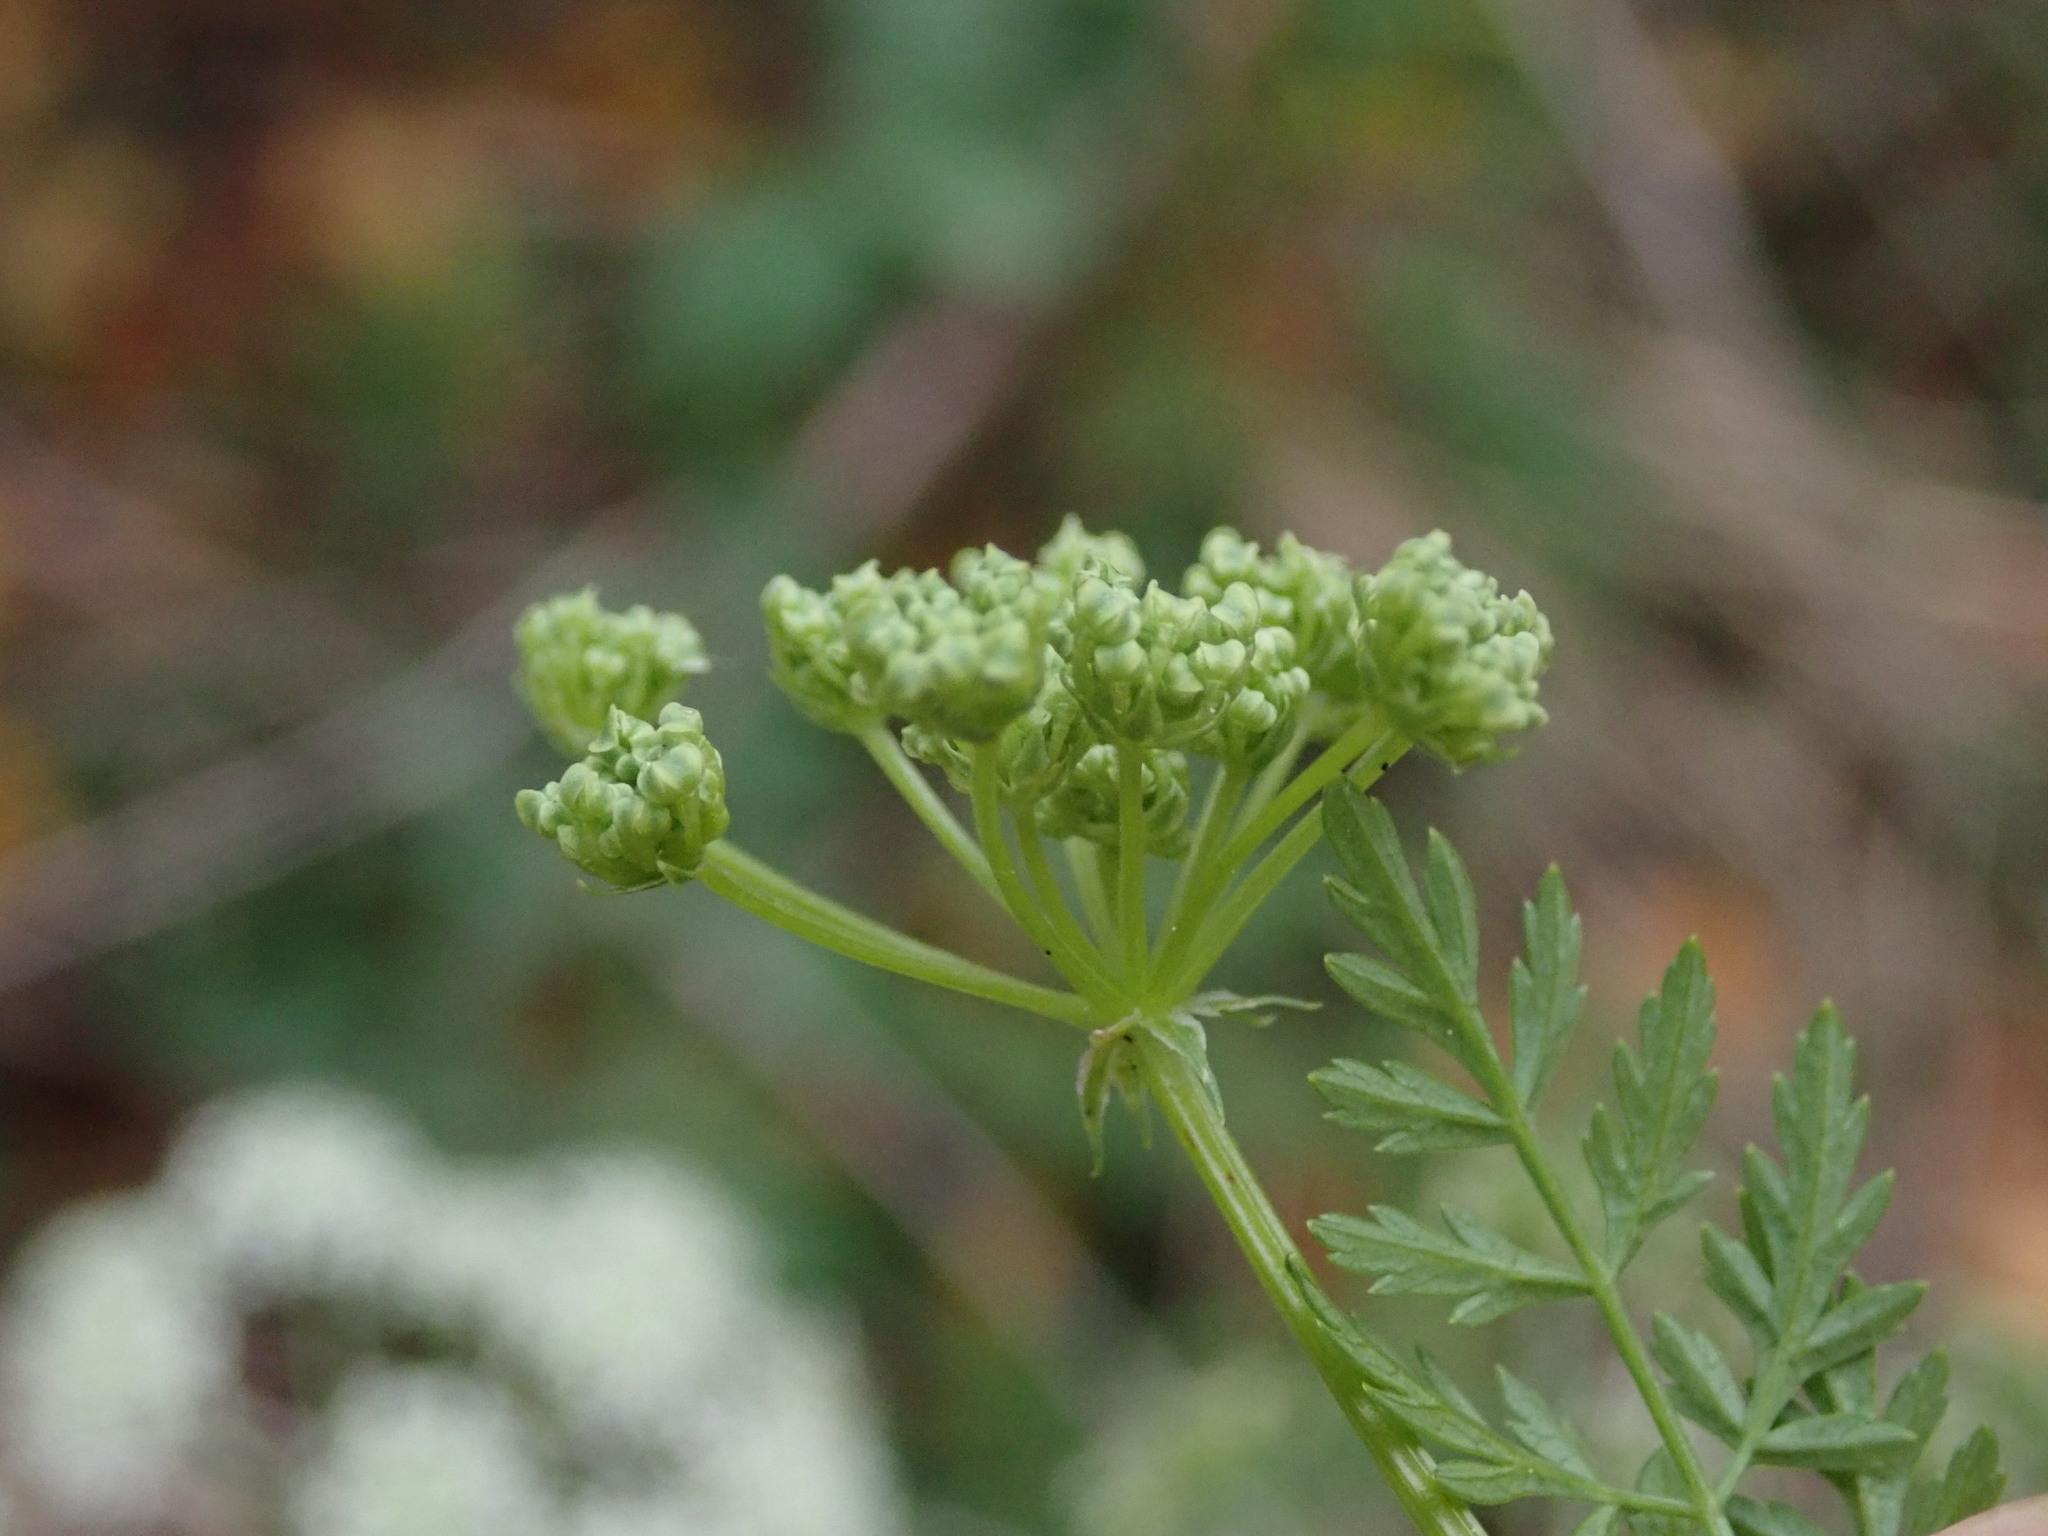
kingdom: Plantae
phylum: Tracheophyta
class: Magnoliopsida
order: Apiales
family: Apiaceae
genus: Conium
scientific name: Conium maculatum
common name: Hemlock
